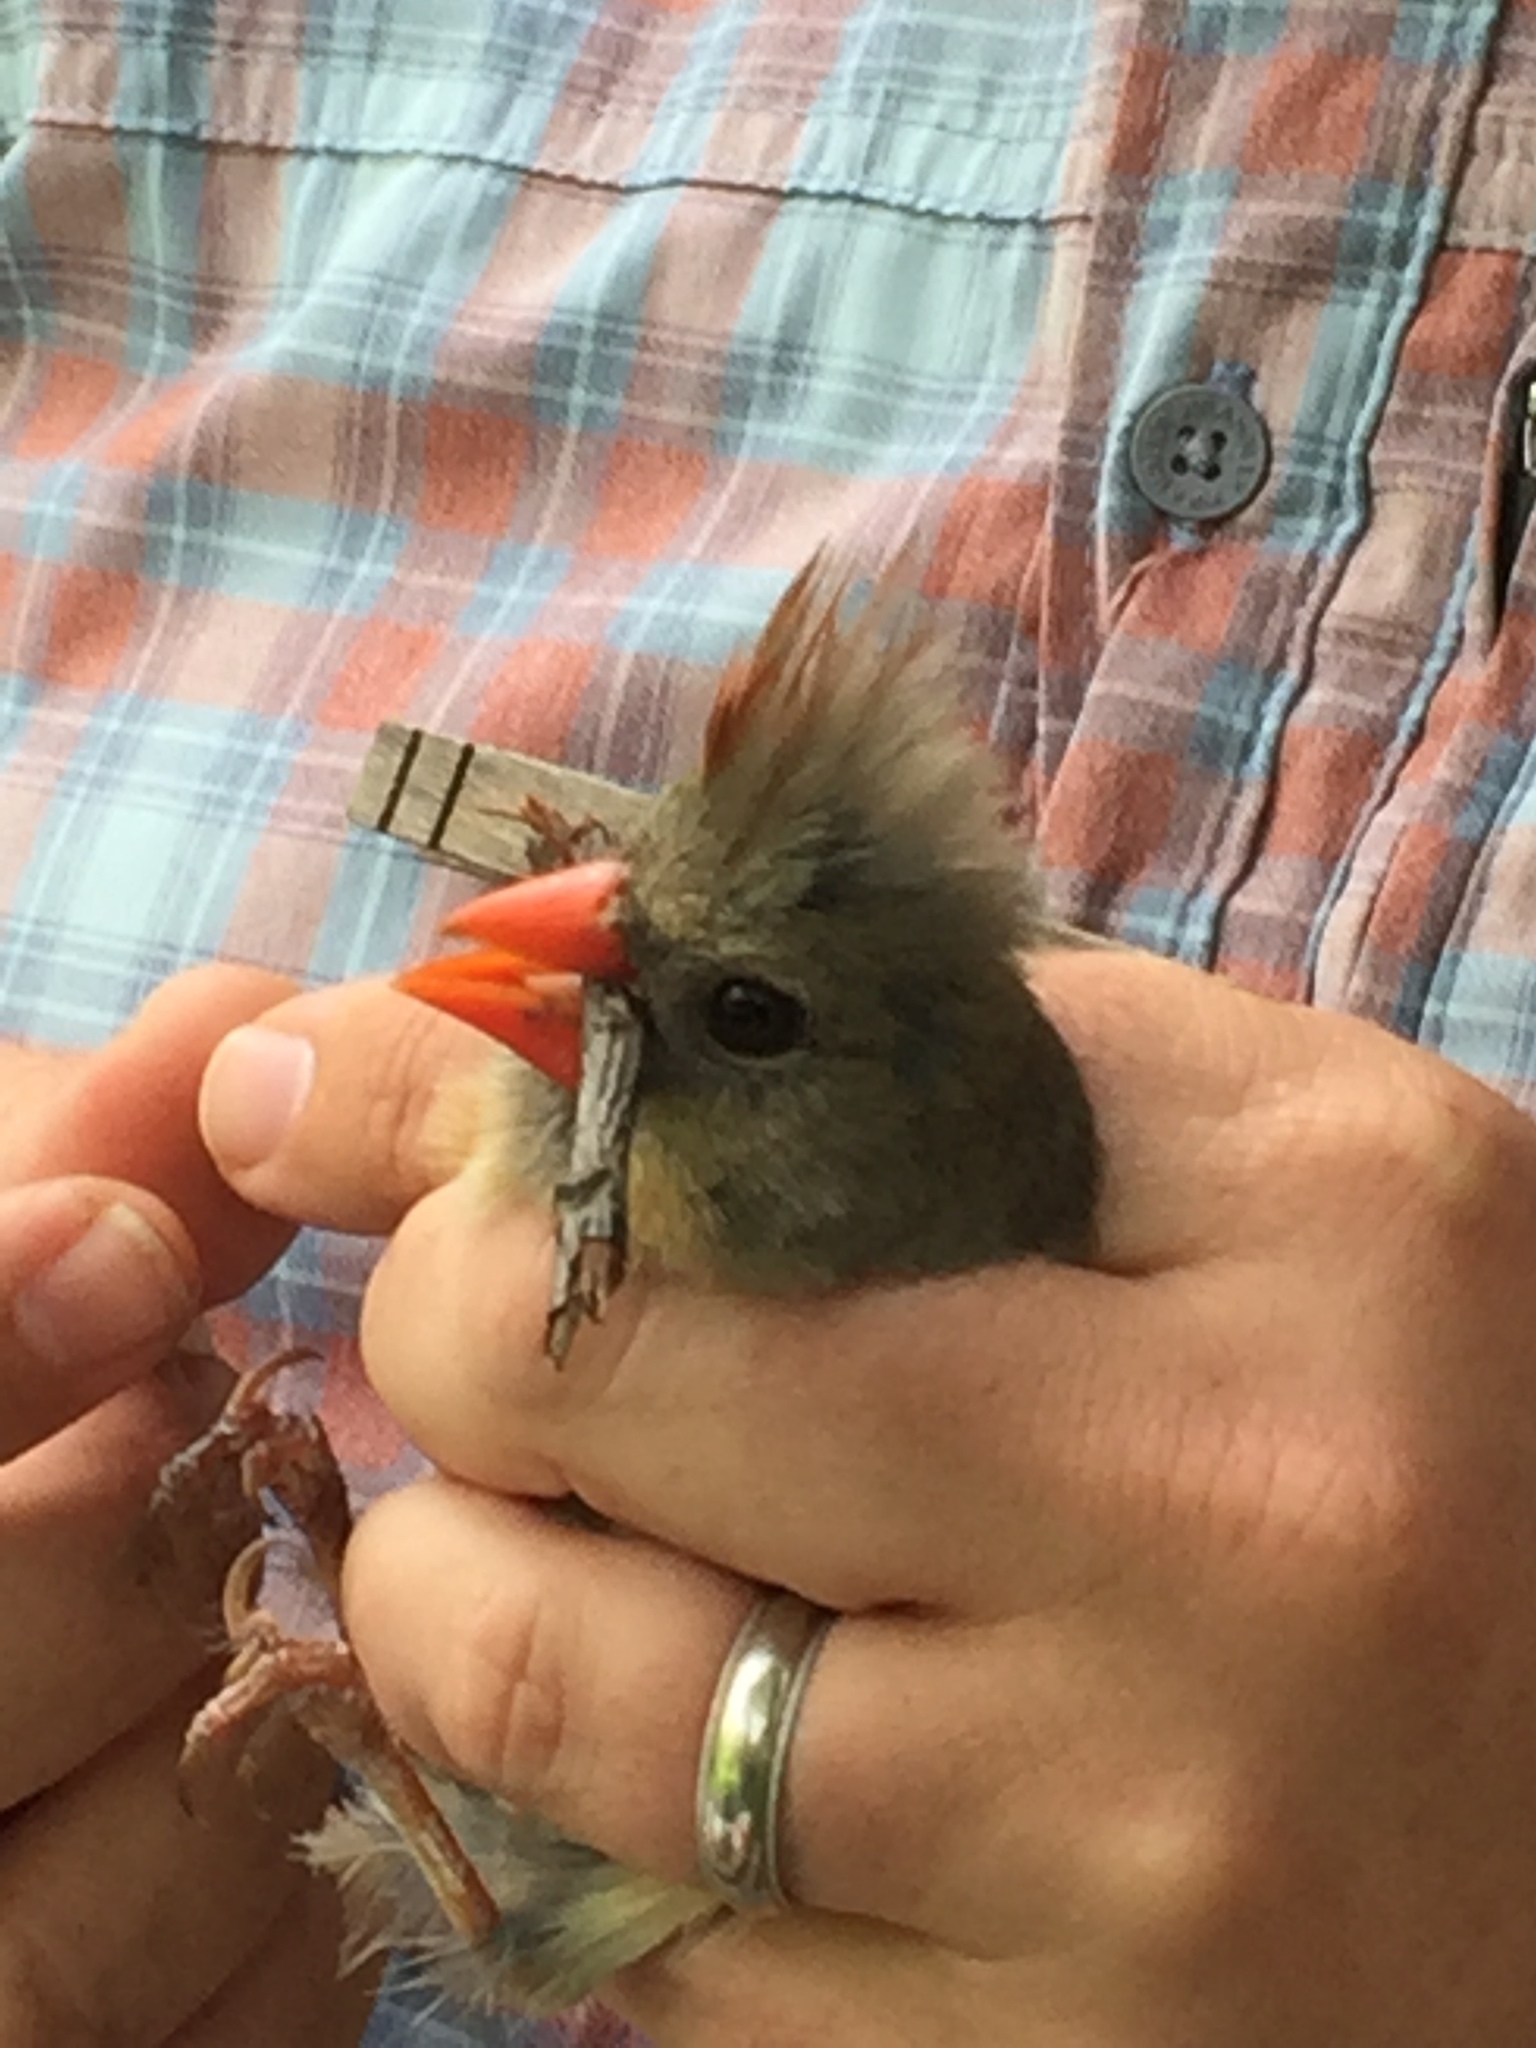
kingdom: Animalia
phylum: Chordata
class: Aves
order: Passeriformes
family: Cardinalidae
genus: Cardinalis
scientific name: Cardinalis cardinalis
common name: Northern cardinal
